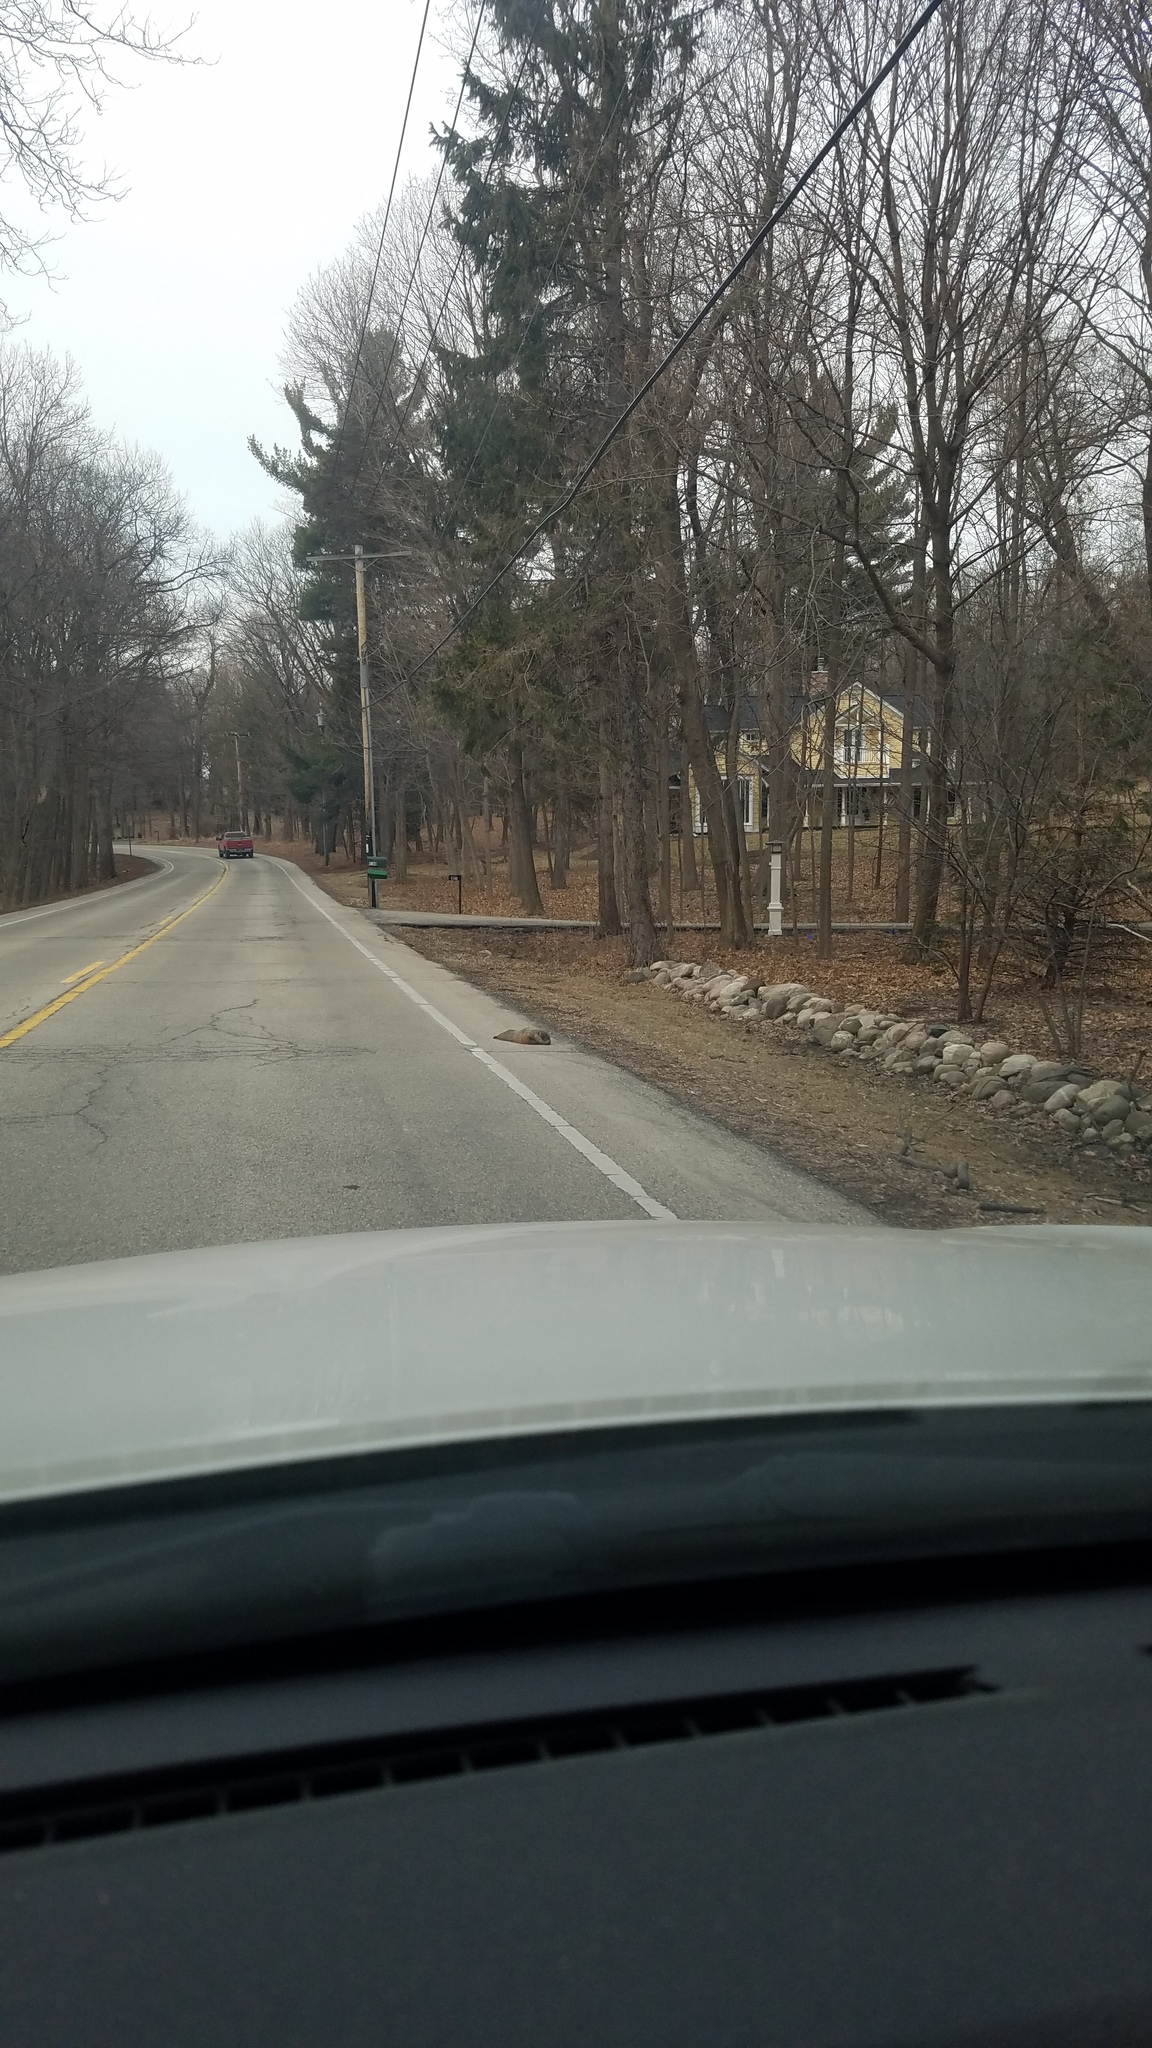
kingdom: Animalia
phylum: Chordata
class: Mammalia
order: Rodentia
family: Sciuridae
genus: Marmota
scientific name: Marmota monax
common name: Groundhog
